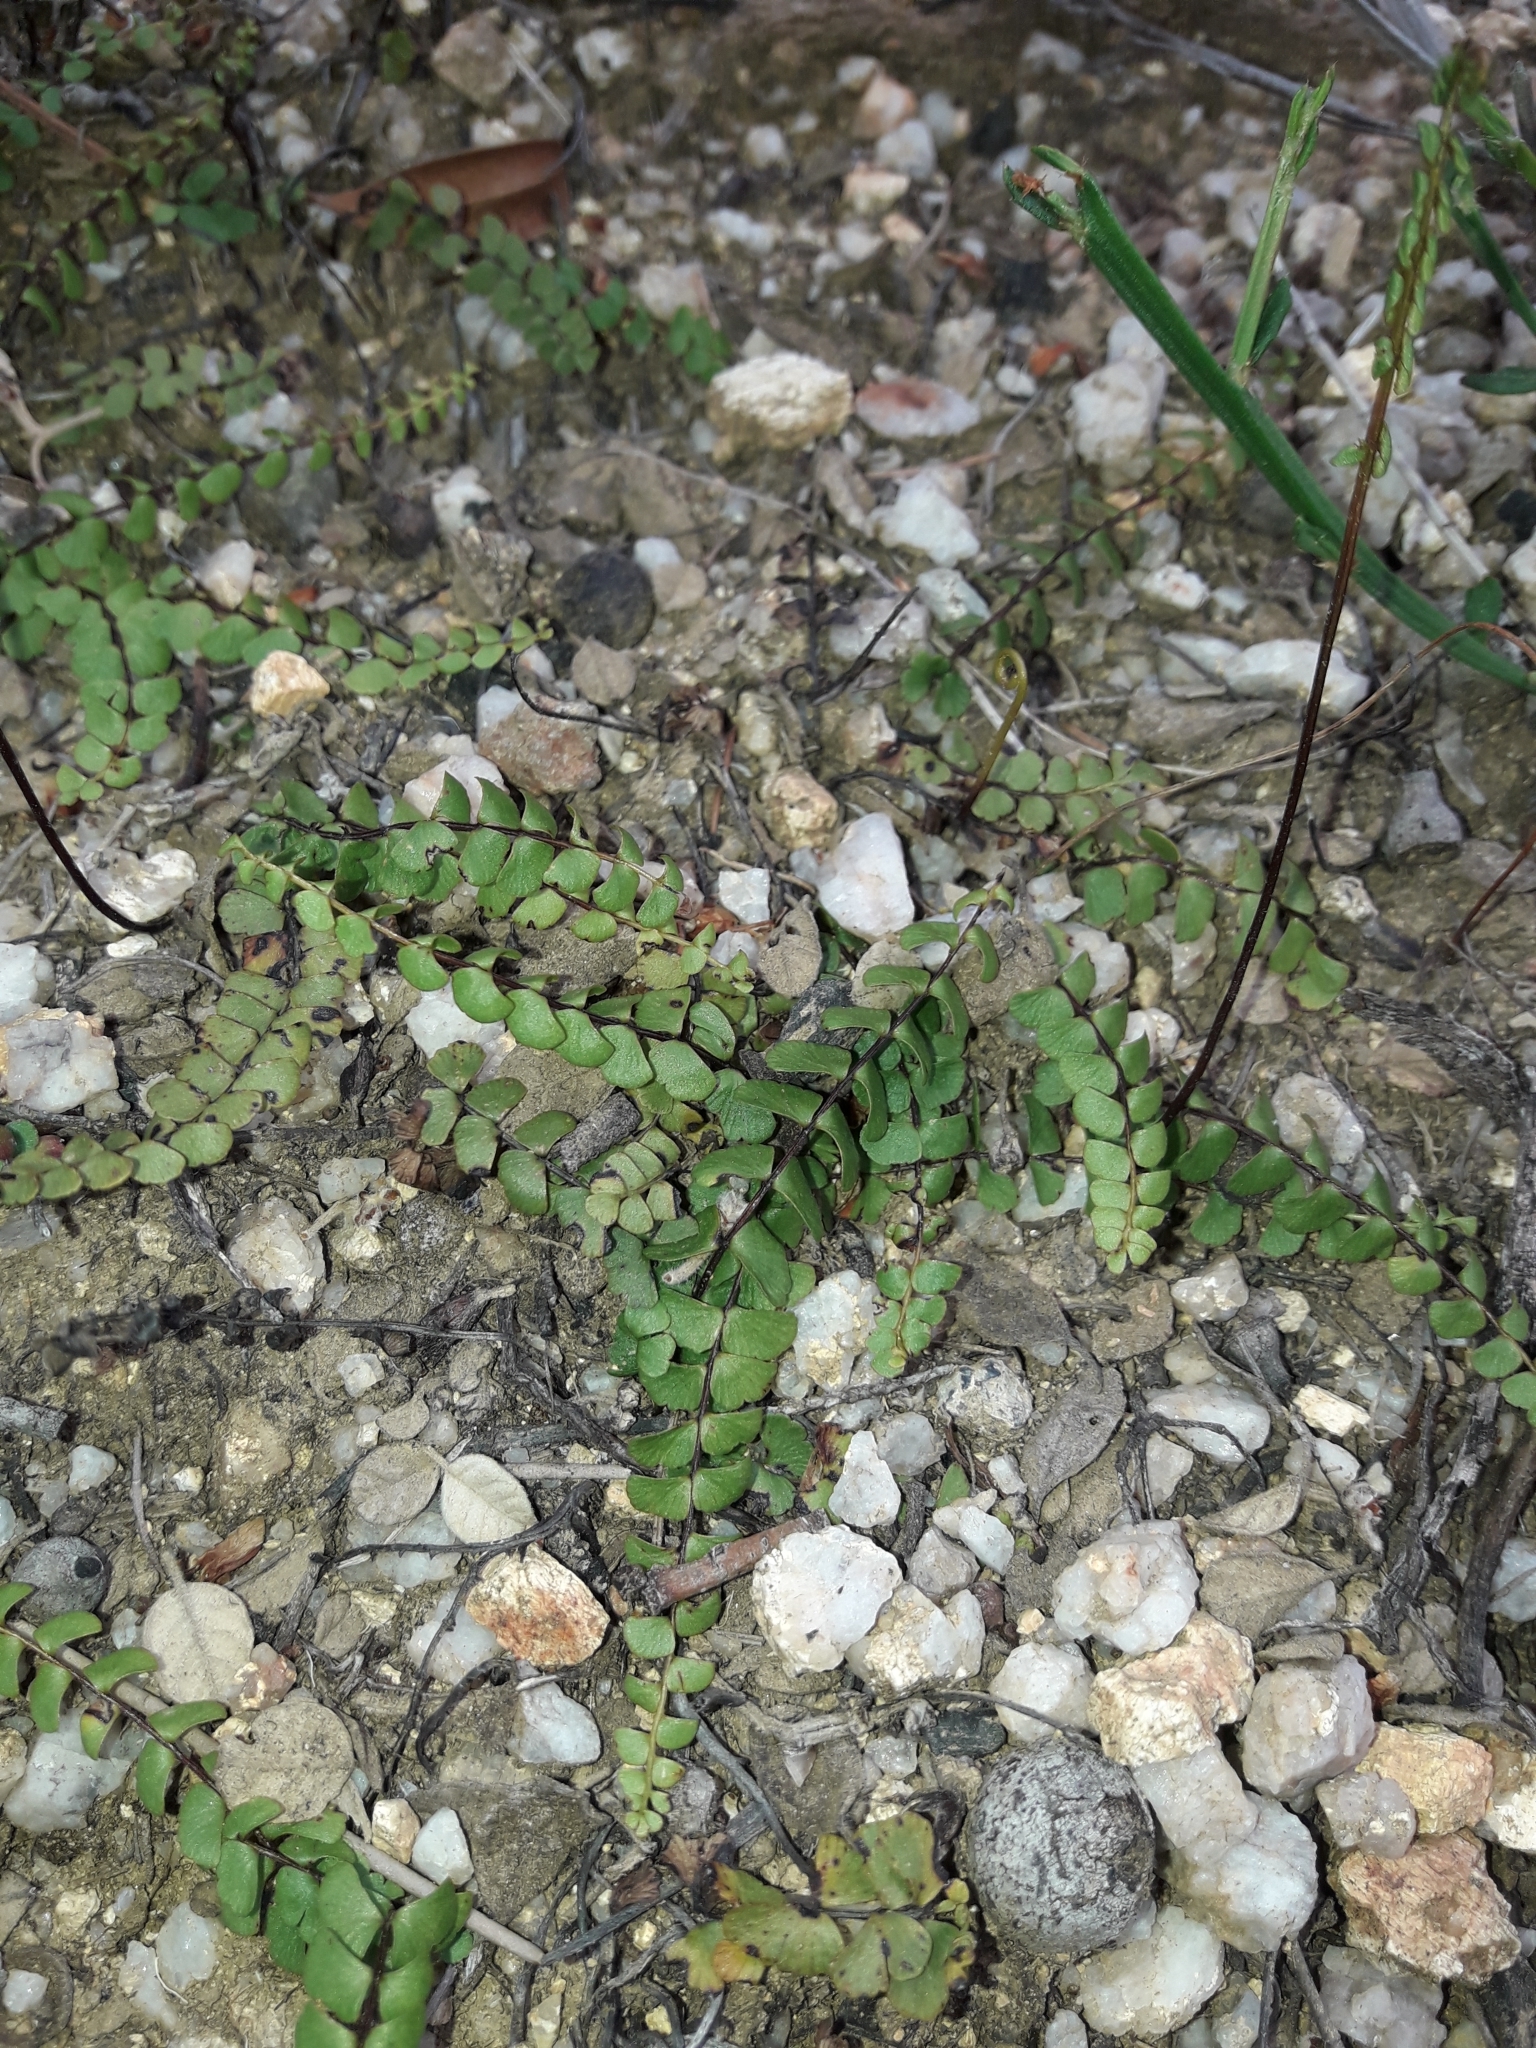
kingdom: Plantae
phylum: Tracheophyta
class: Polypodiopsida
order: Polypodiales
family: Lindsaeaceae
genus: Lindsaea
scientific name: Lindsaea linearis
